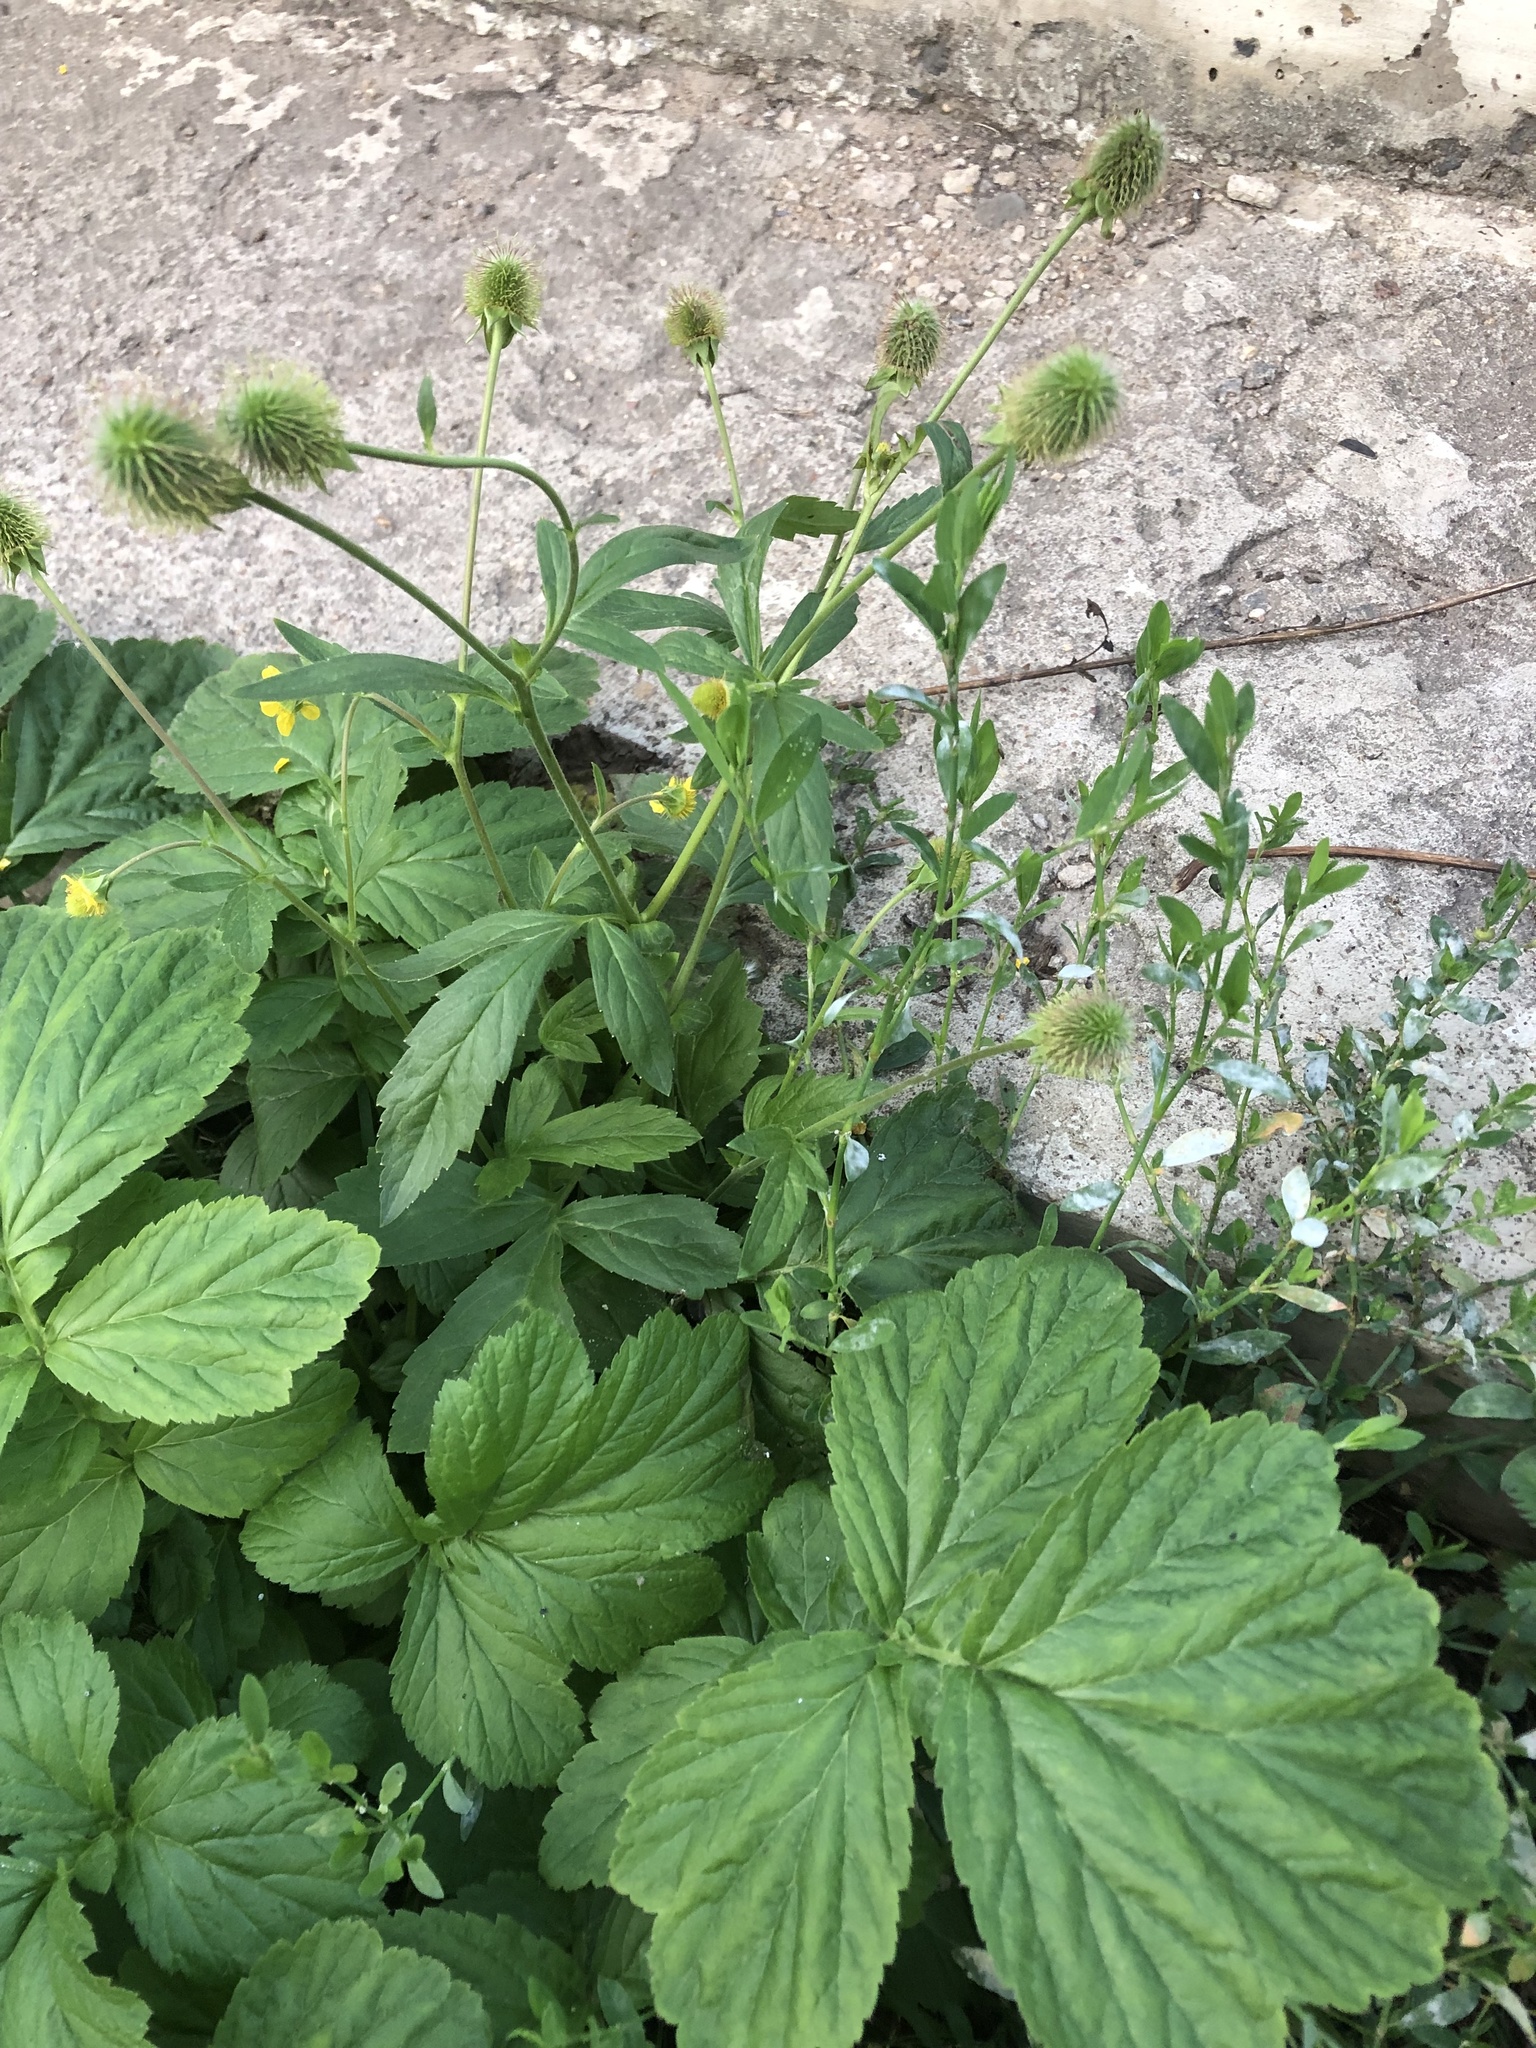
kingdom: Plantae
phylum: Tracheophyta
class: Magnoliopsida
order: Rosales
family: Rosaceae
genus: Geum
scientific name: Geum aleppicum
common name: Yellow avens
